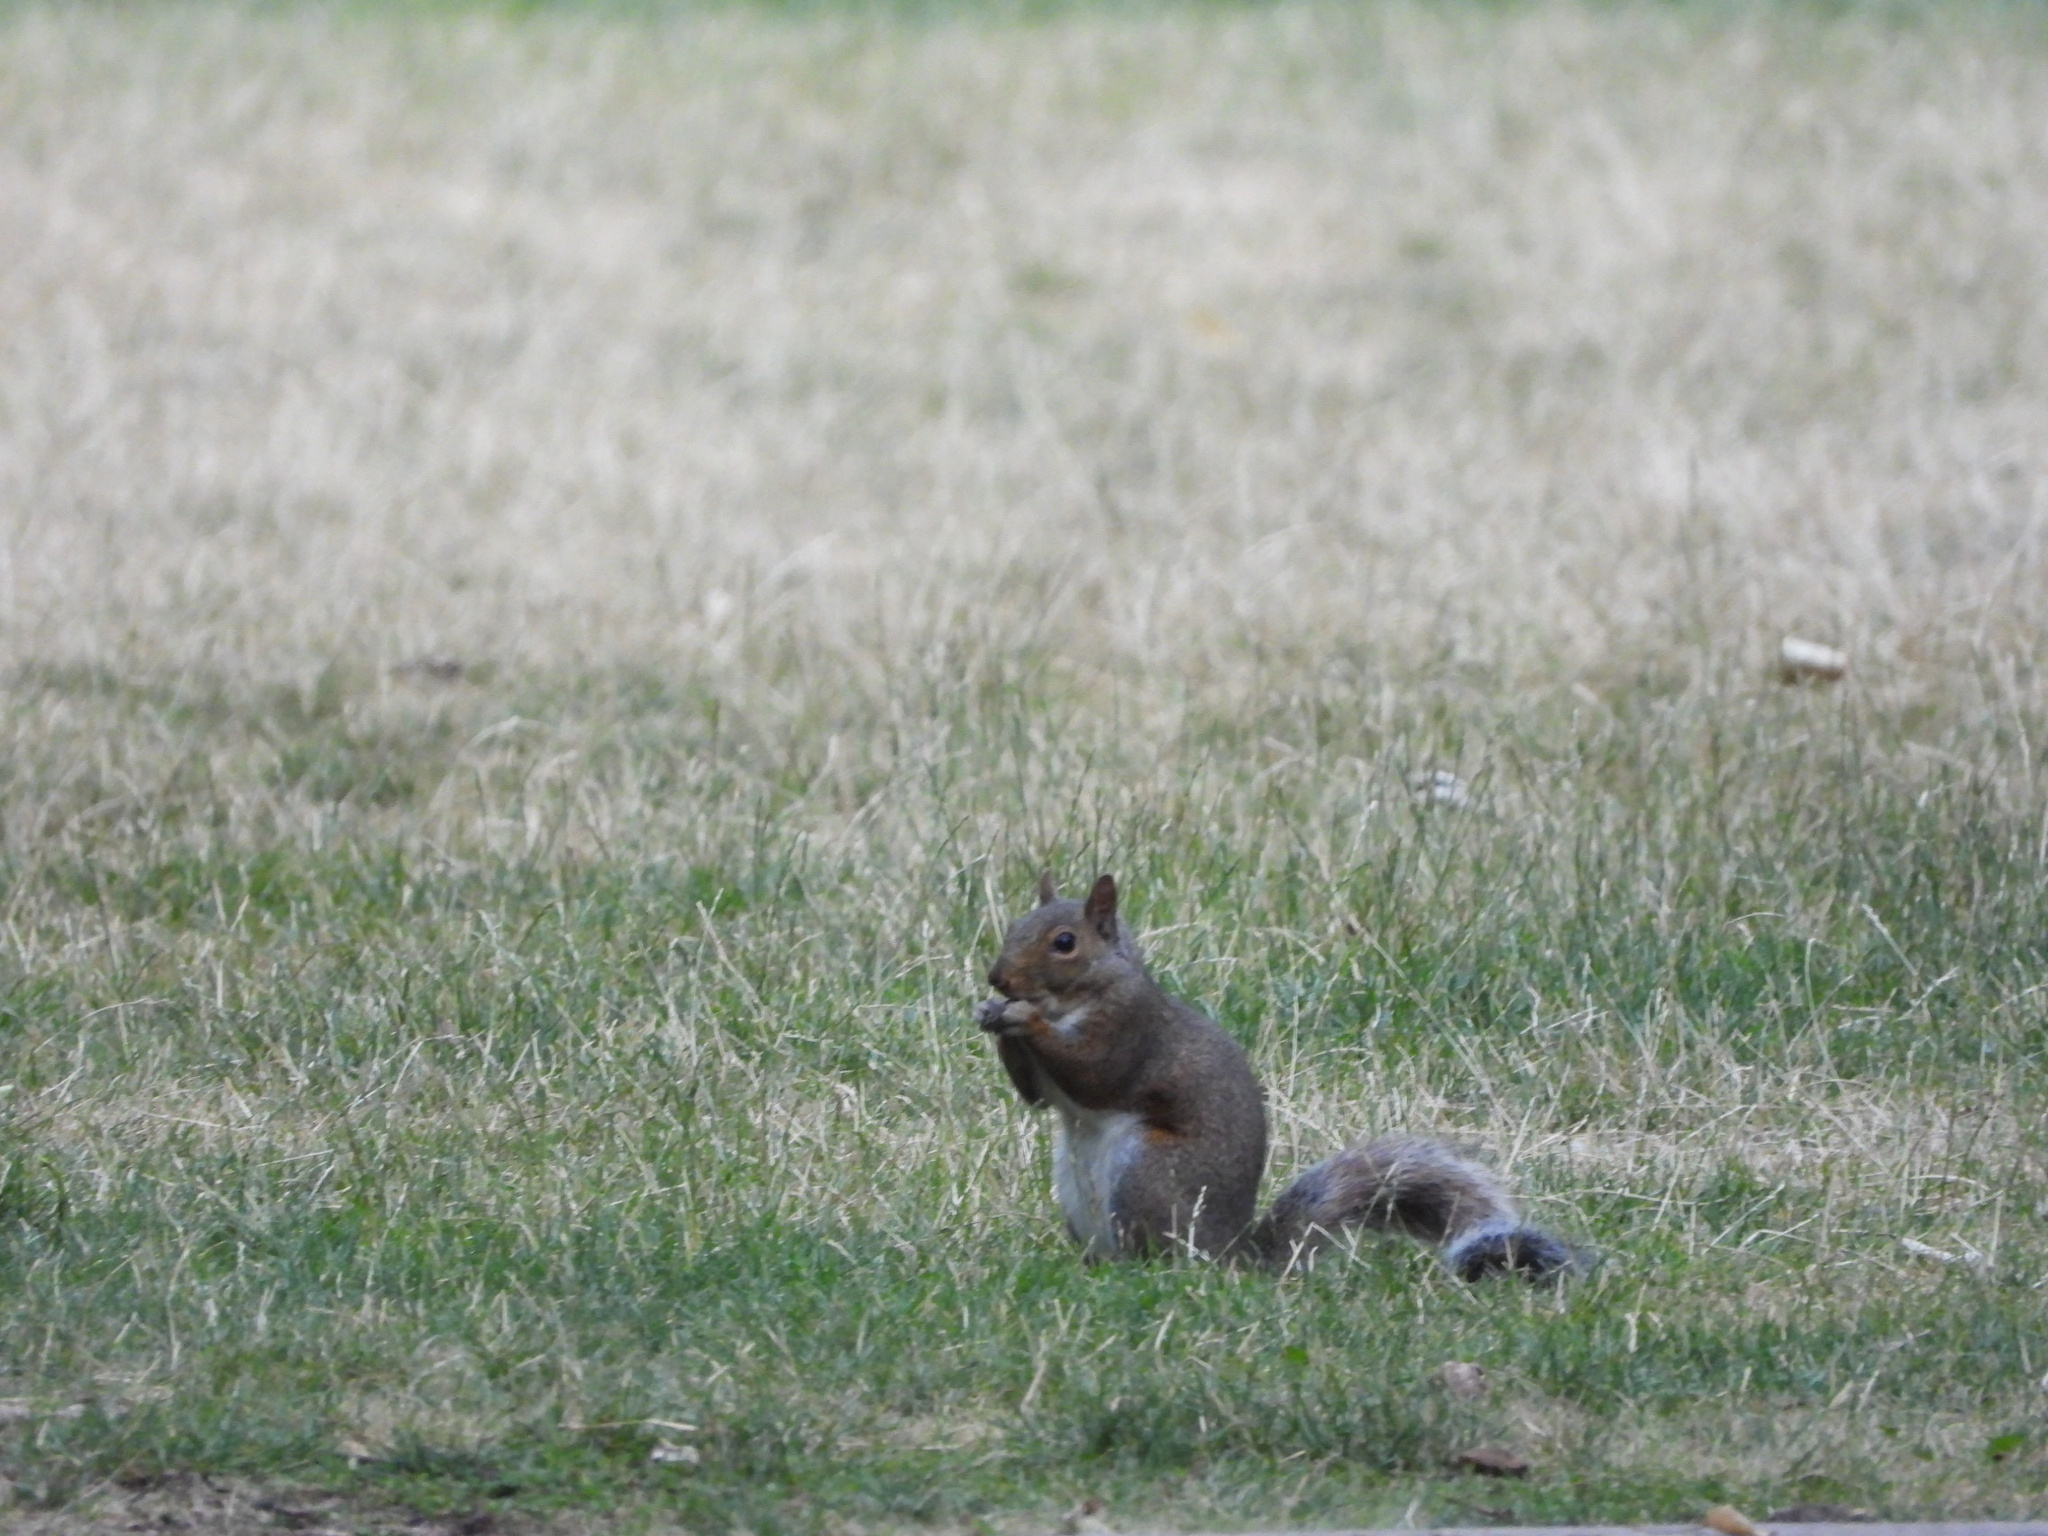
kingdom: Animalia
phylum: Chordata
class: Mammalia
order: Rodentia
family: Sciuridae
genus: Sciurus
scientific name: Sciurus carolinensis
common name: Eastern gray squirrel
